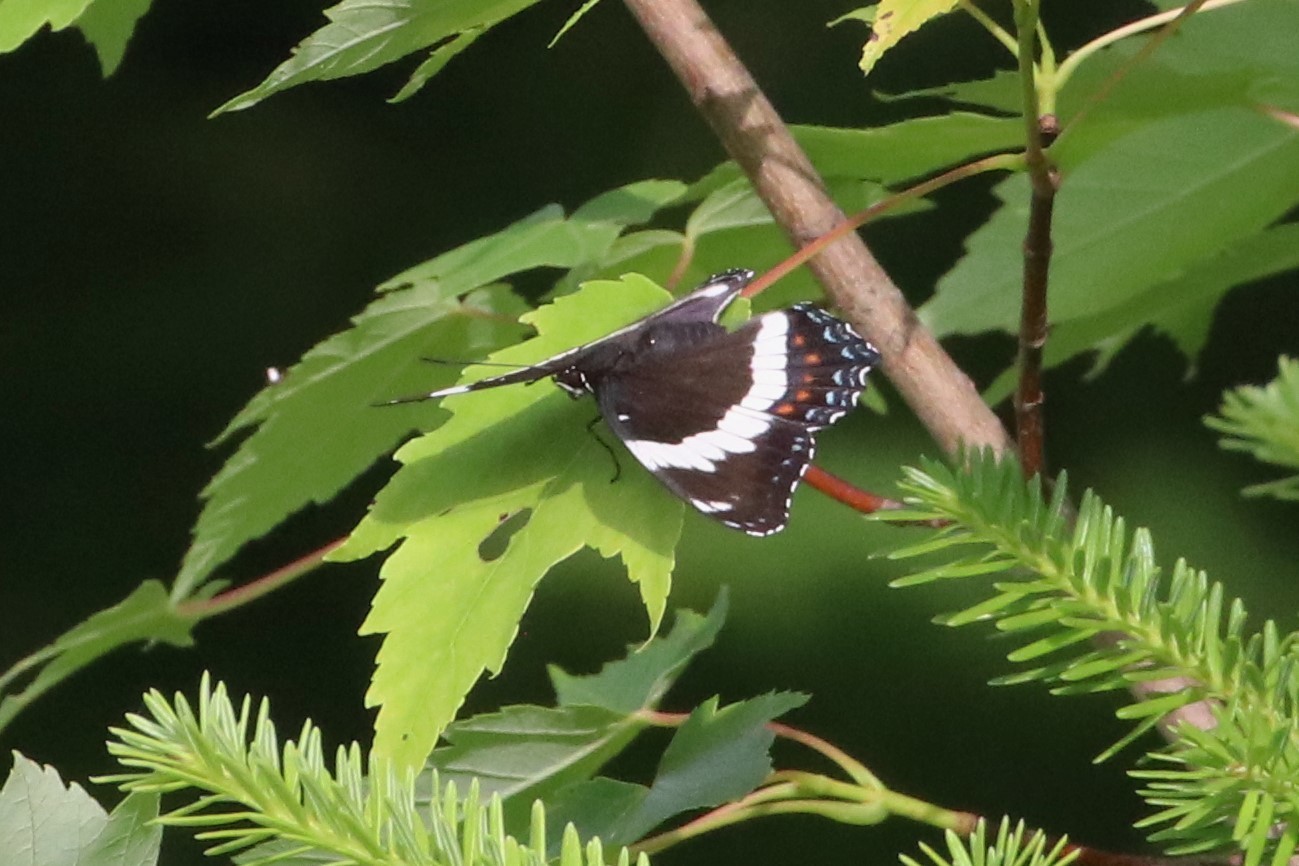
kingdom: Animalia
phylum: Arthropoda
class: Insecta
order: Lepidoptera
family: Nymphalidae
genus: Limenitis
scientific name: Limenitis arthemis
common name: Red-spotted admiral
